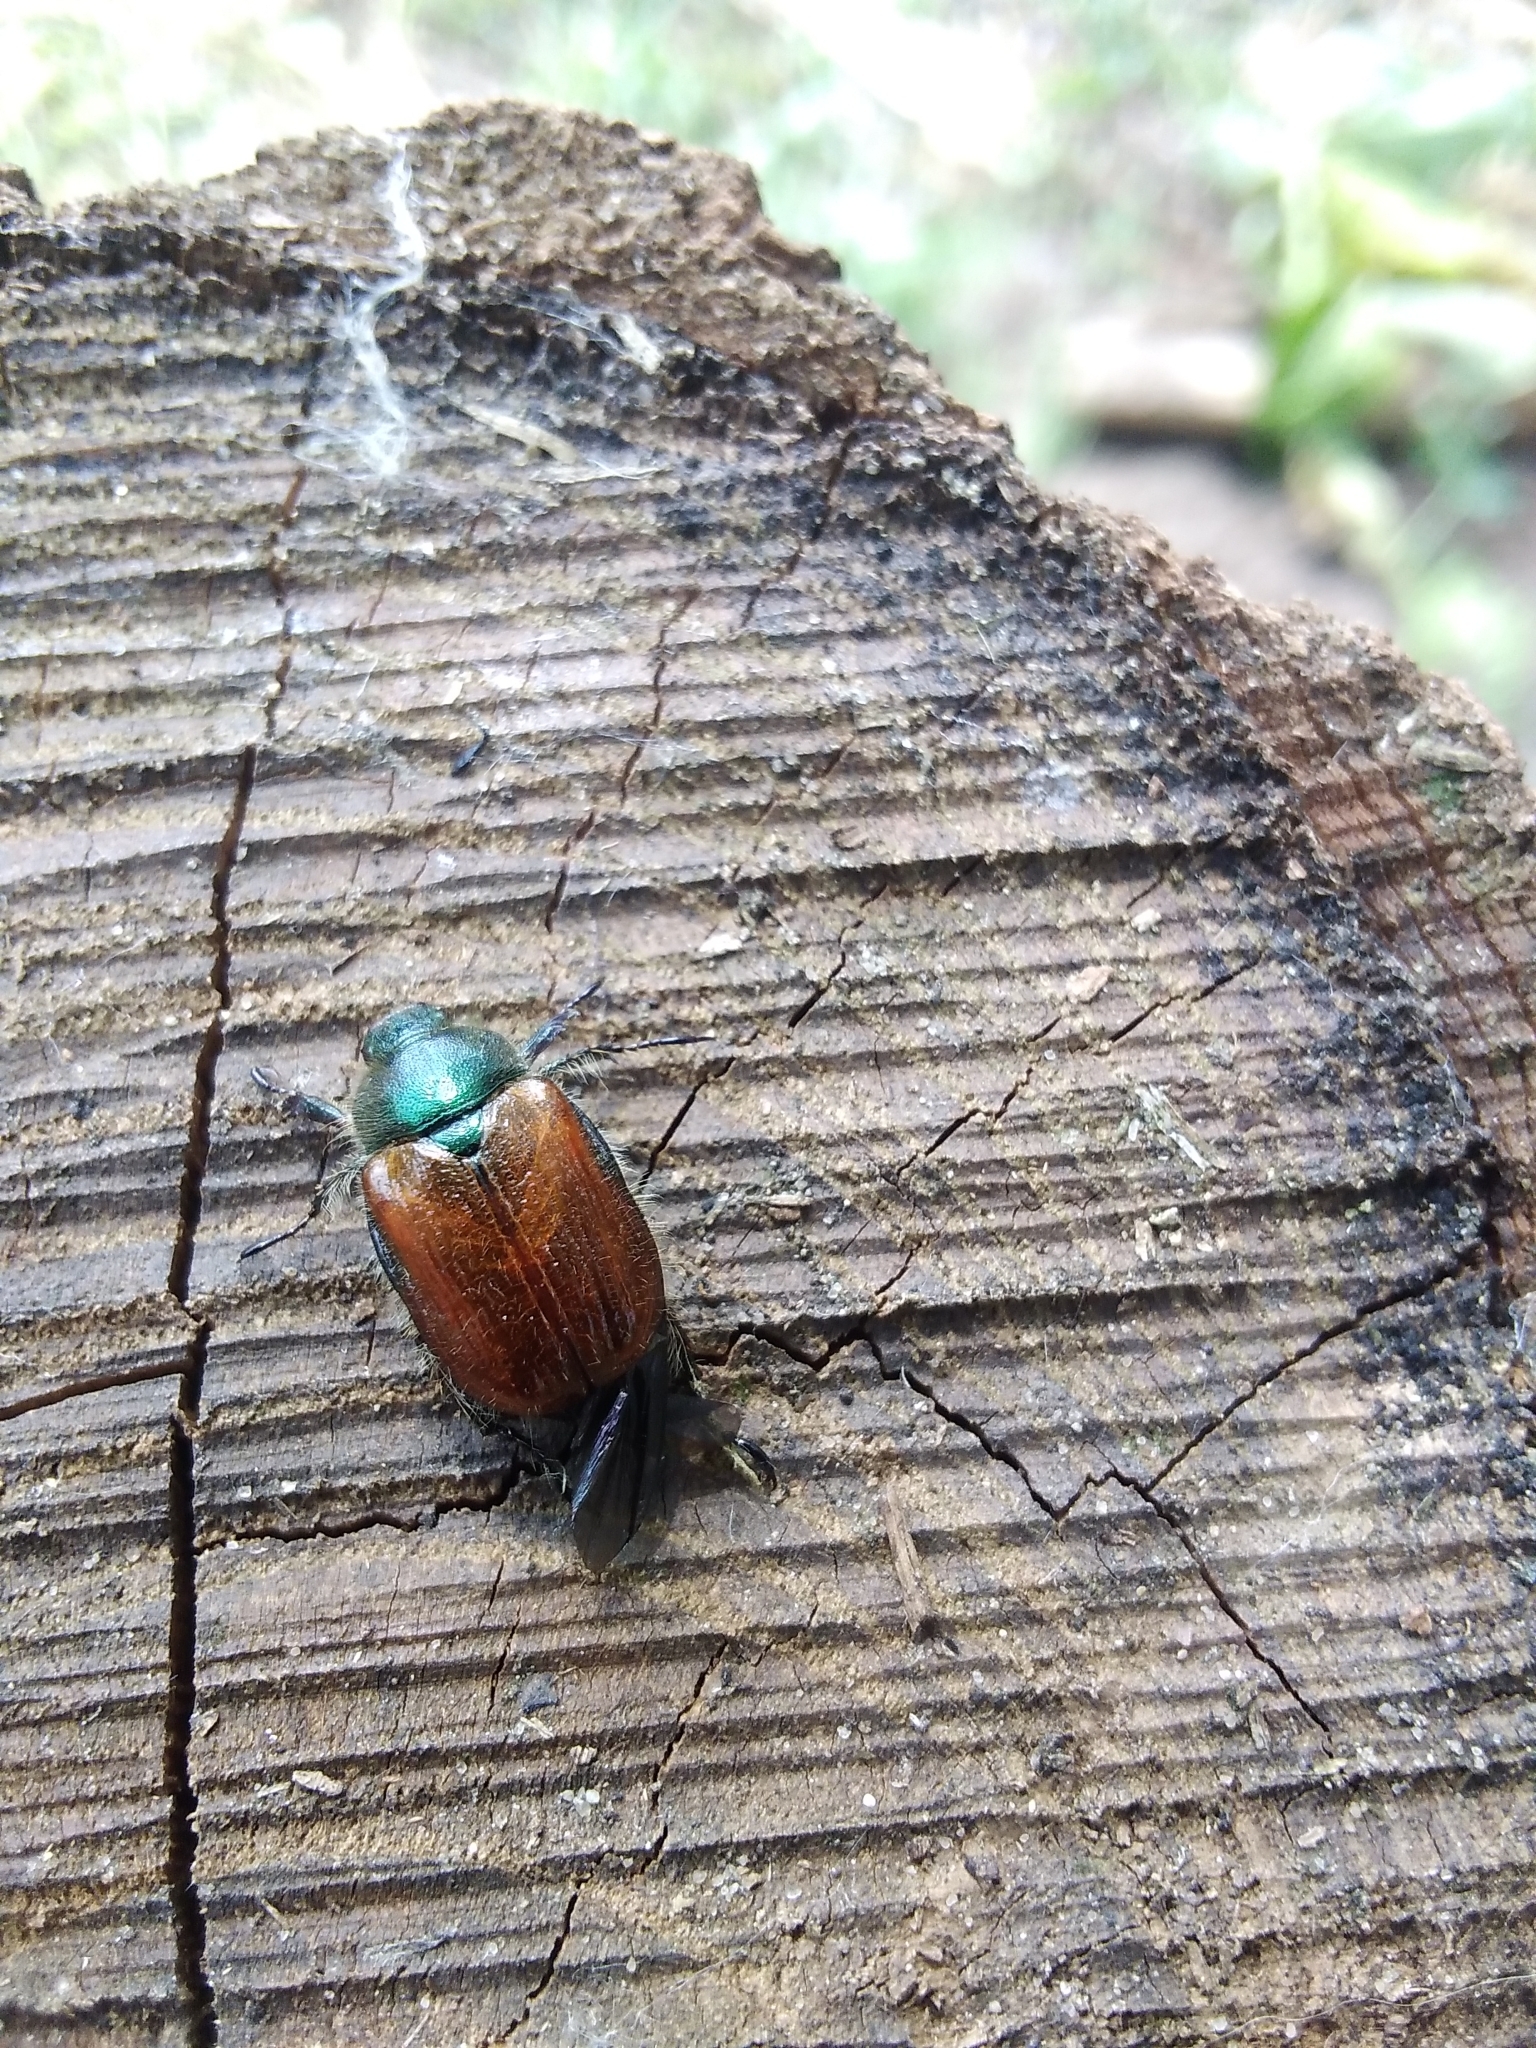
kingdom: Animalia
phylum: Arthropoda
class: Insecta
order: Coleoptera
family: Scarabaeidae
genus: Phyllopertha
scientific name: Phyllopertha horticola
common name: Garden chafer
